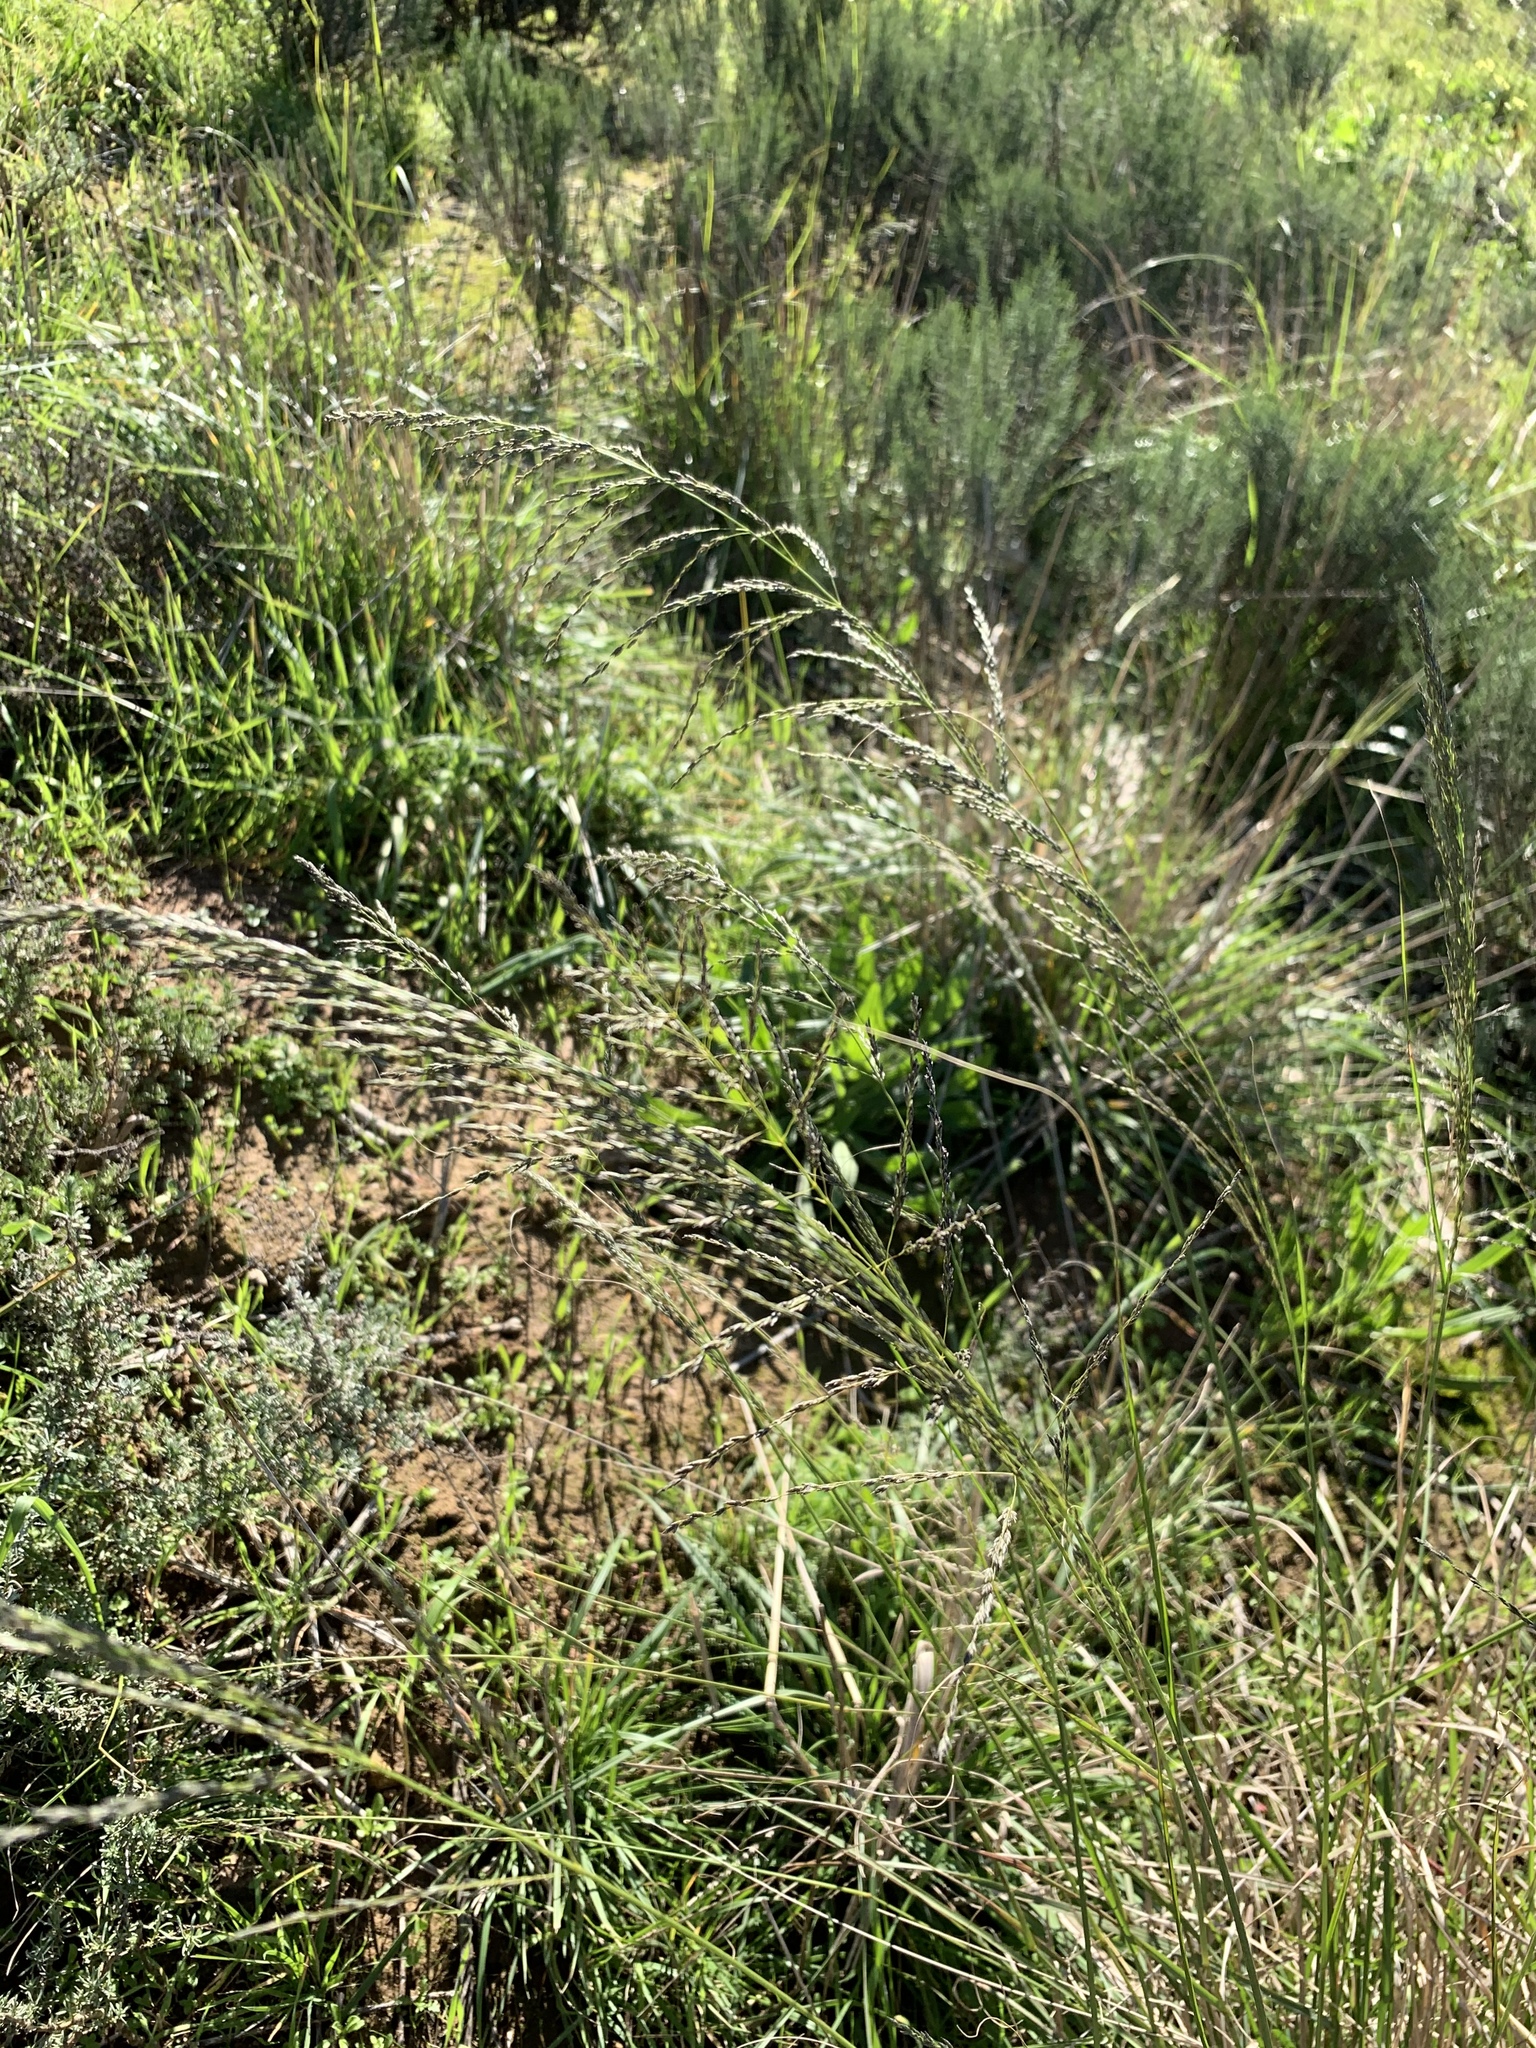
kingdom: Plantae
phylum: Tracheophyta
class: Liliopsida
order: Poales
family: Poaceae
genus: Eragrostis
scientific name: Eragrostis curvula
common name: African love-grass
